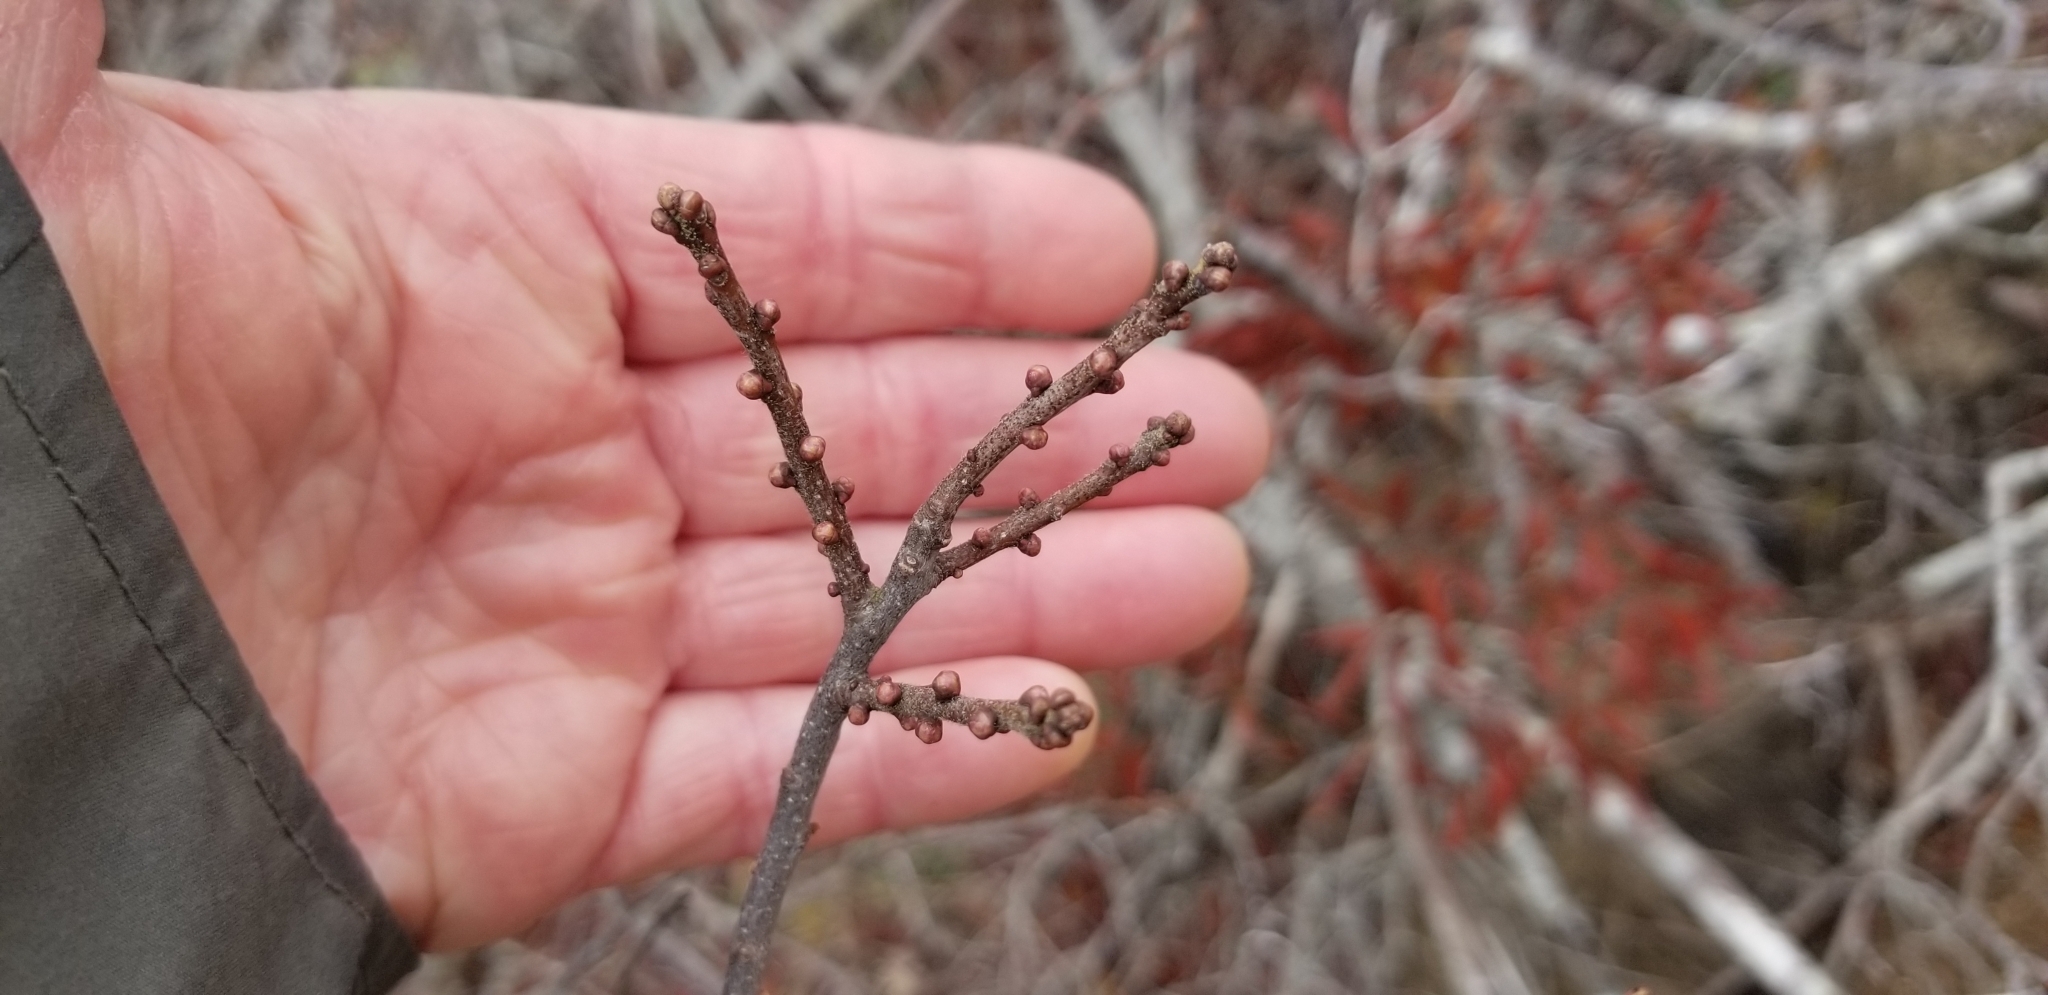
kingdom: Plantae
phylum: Tracheophyta
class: Magnoliopsida
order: Fagales
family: Myricaceae
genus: Morella
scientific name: Morella pensylvanica
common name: Northern bayberry
